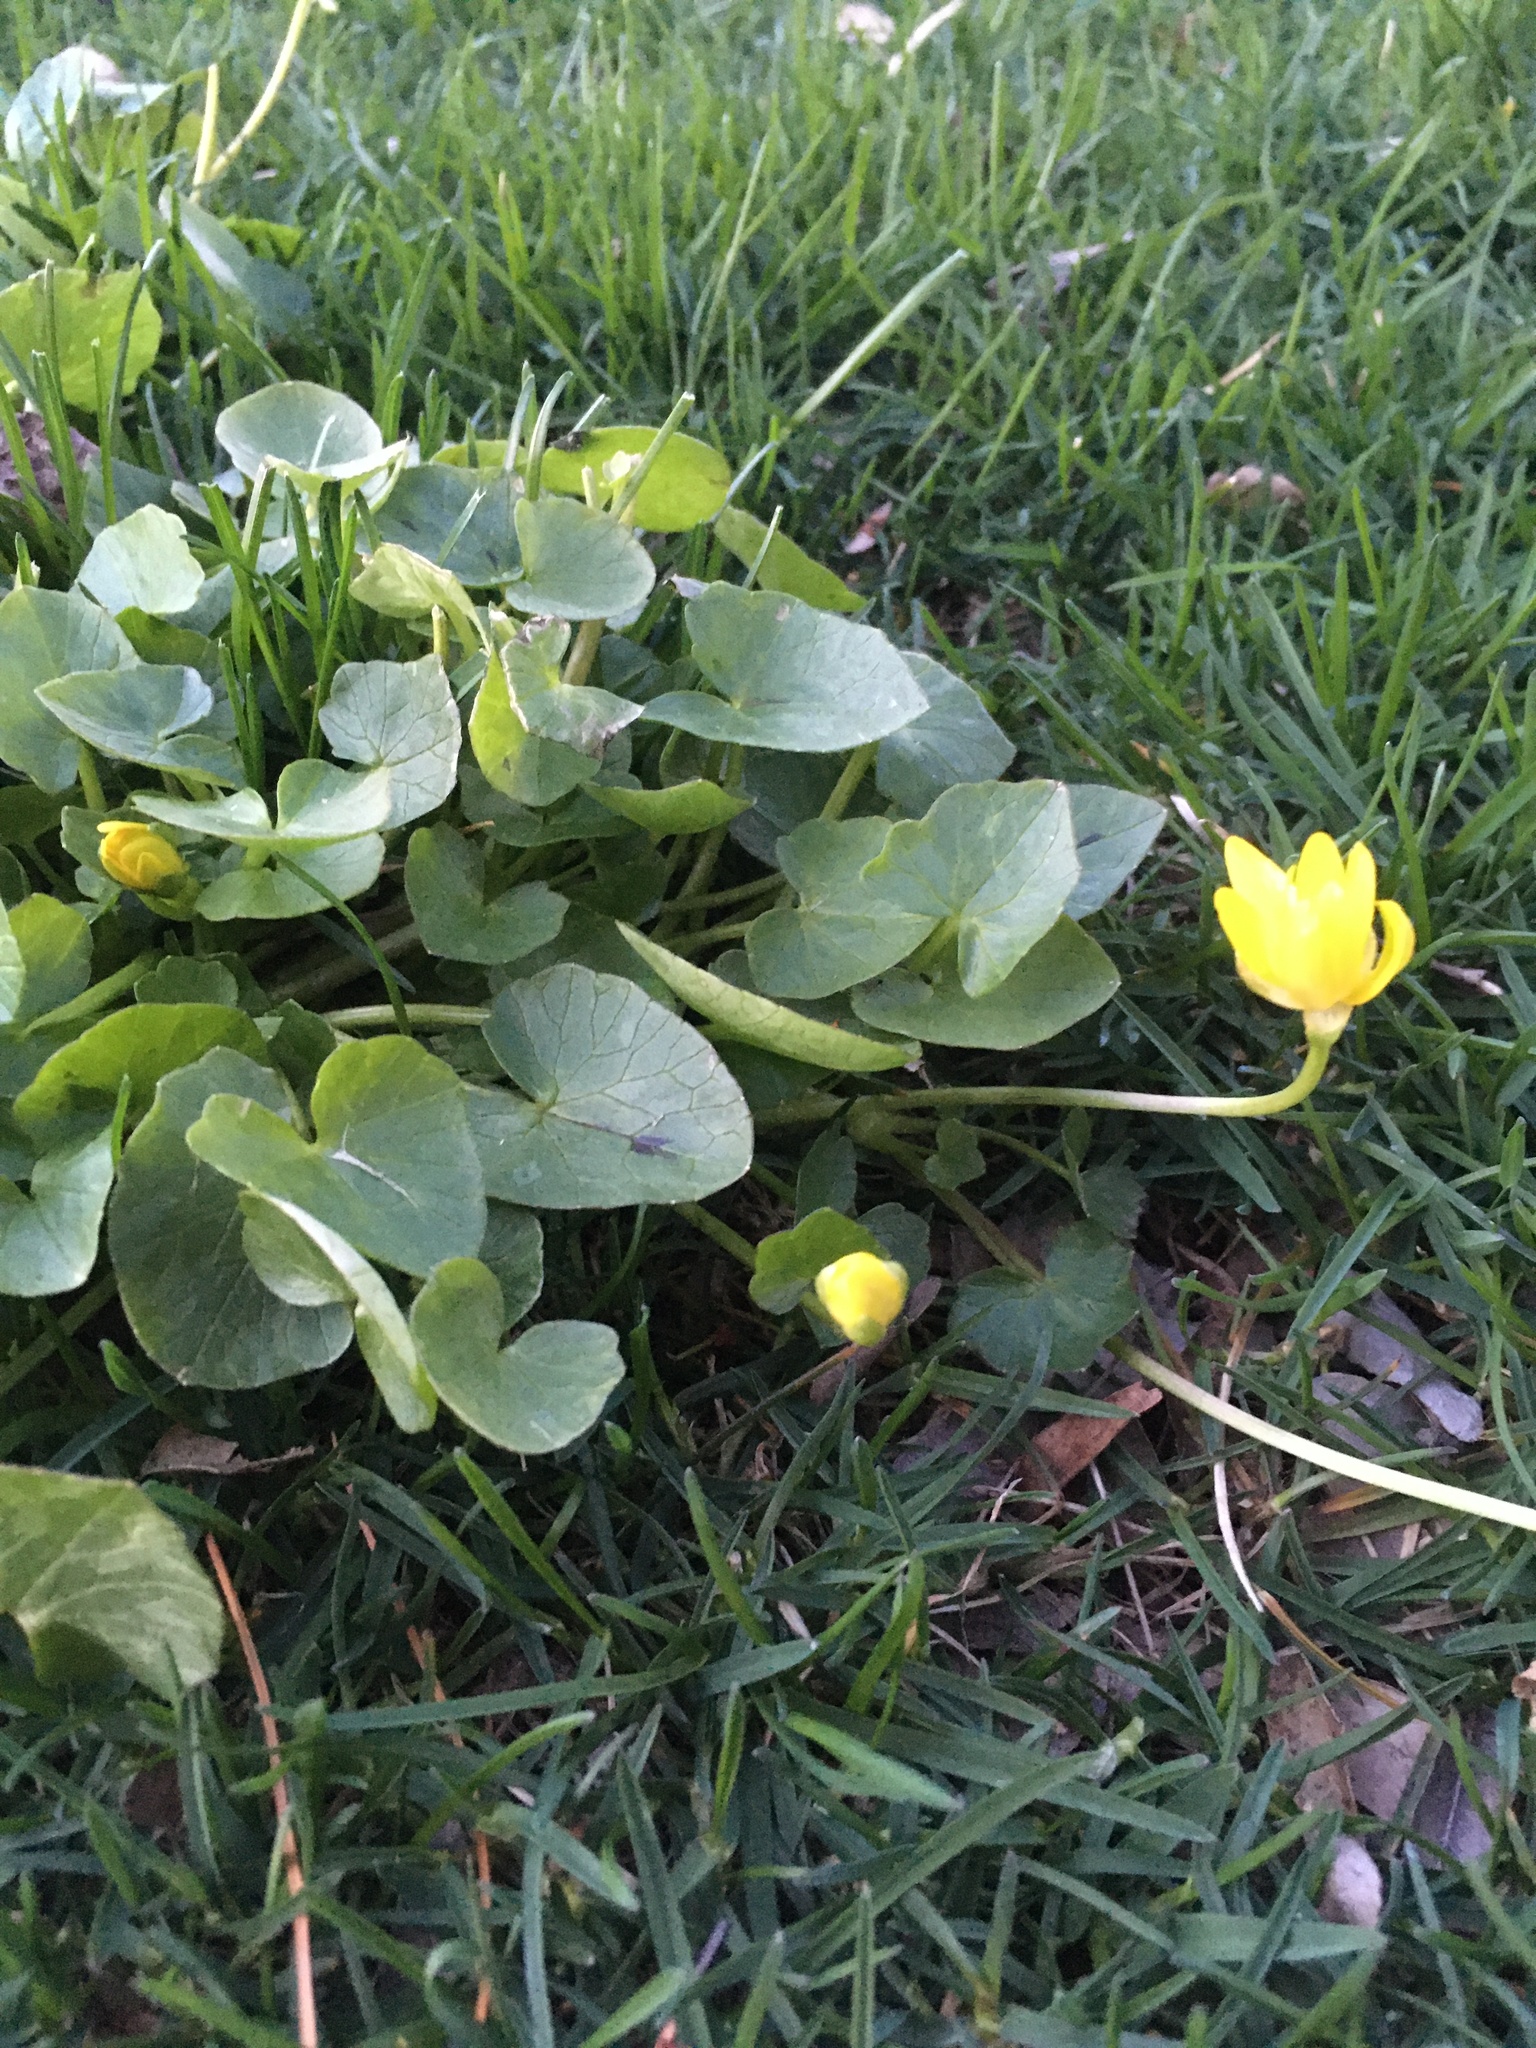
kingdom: Plantae
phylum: Tracheophyta
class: Magnoliopsida
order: Ranunculales
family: Ranunculaceae
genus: Ficaria
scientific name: Ficaria verna
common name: Lesser celandine
